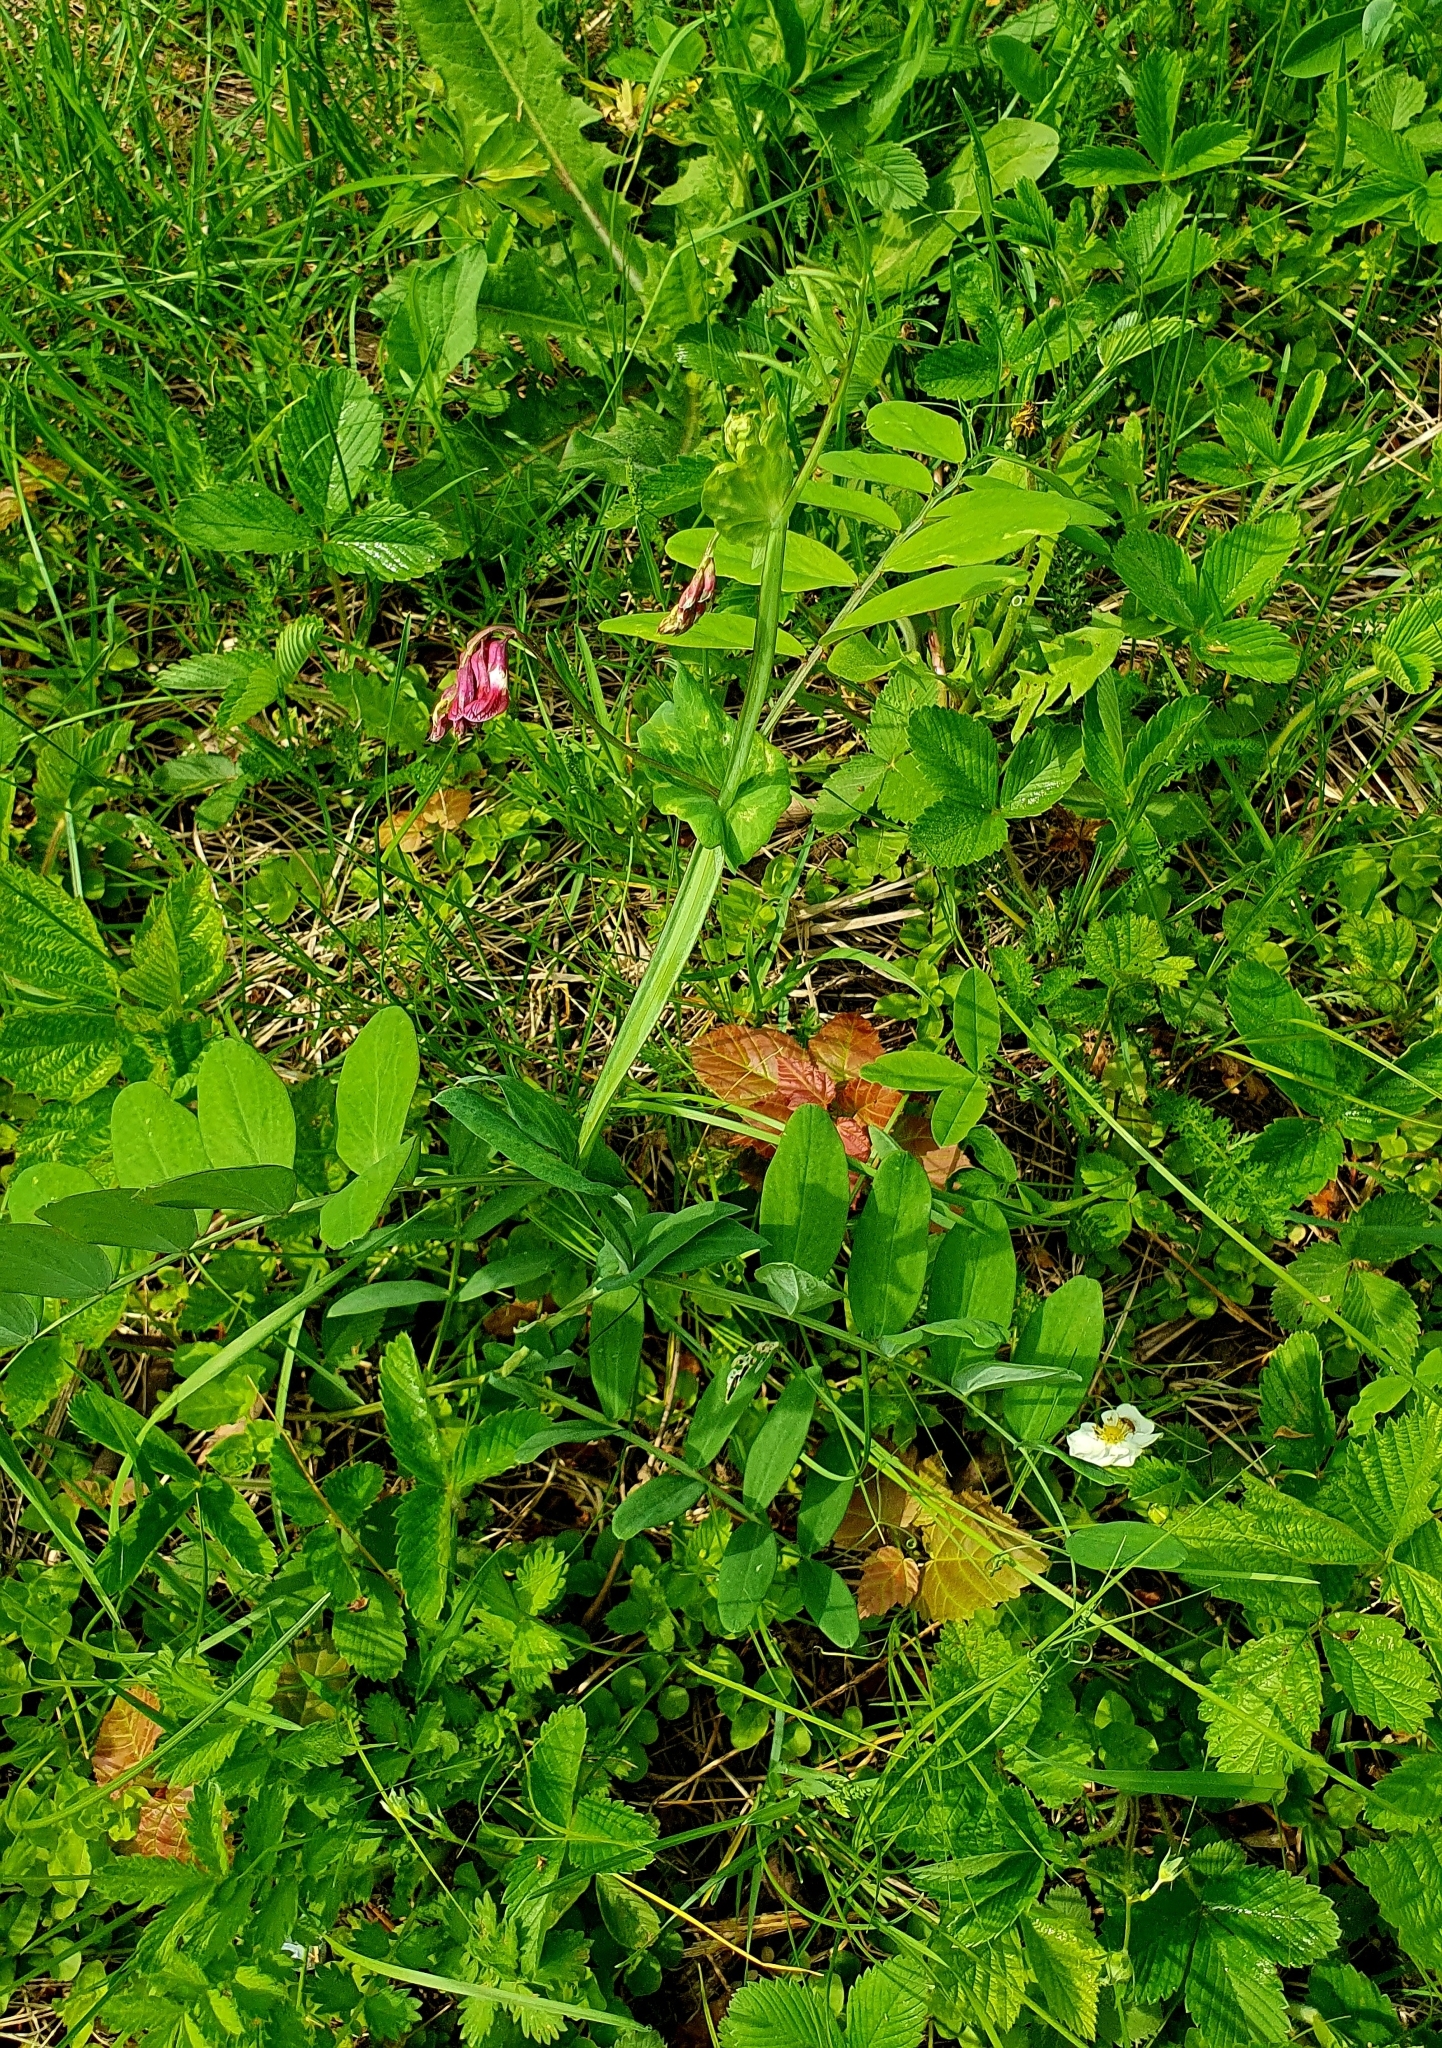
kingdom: Plantae
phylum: Tracheophyta
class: Magnoliopsida
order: Fabales
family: Fabaceae
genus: Lathyrus
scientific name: Lathyrus pisiformis
